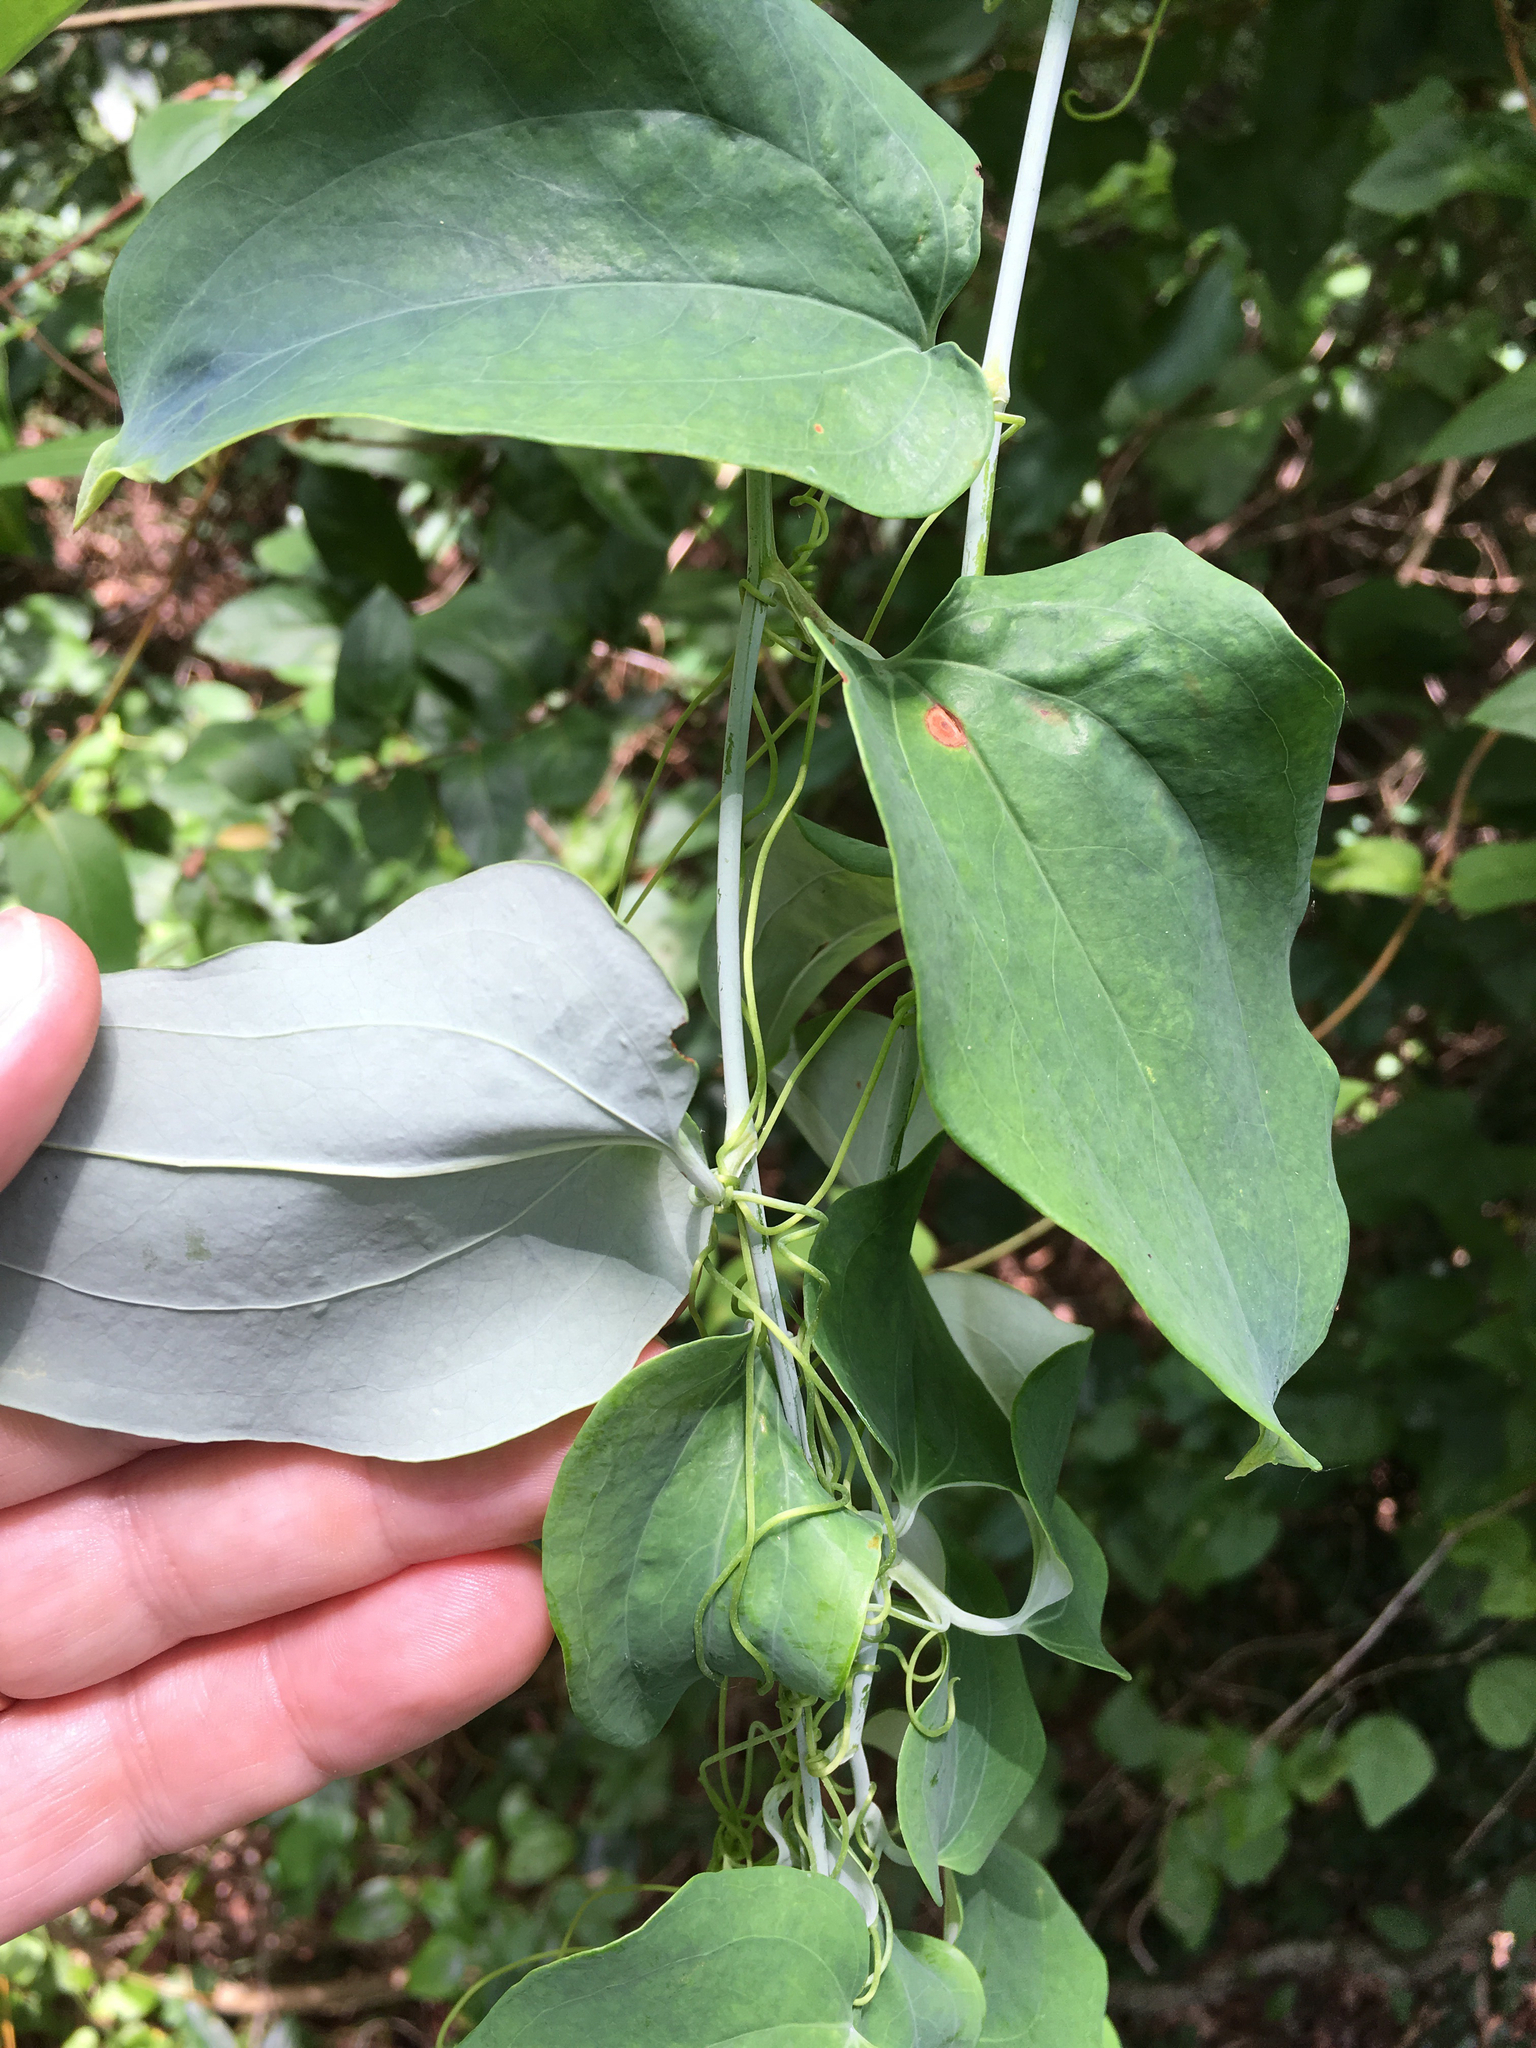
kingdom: Plantae
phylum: Tracheophyta
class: Liliopsida
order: Liliales
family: Smilacaceae
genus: Smilax
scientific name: Smilax glauca
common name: Cat greenbrier
